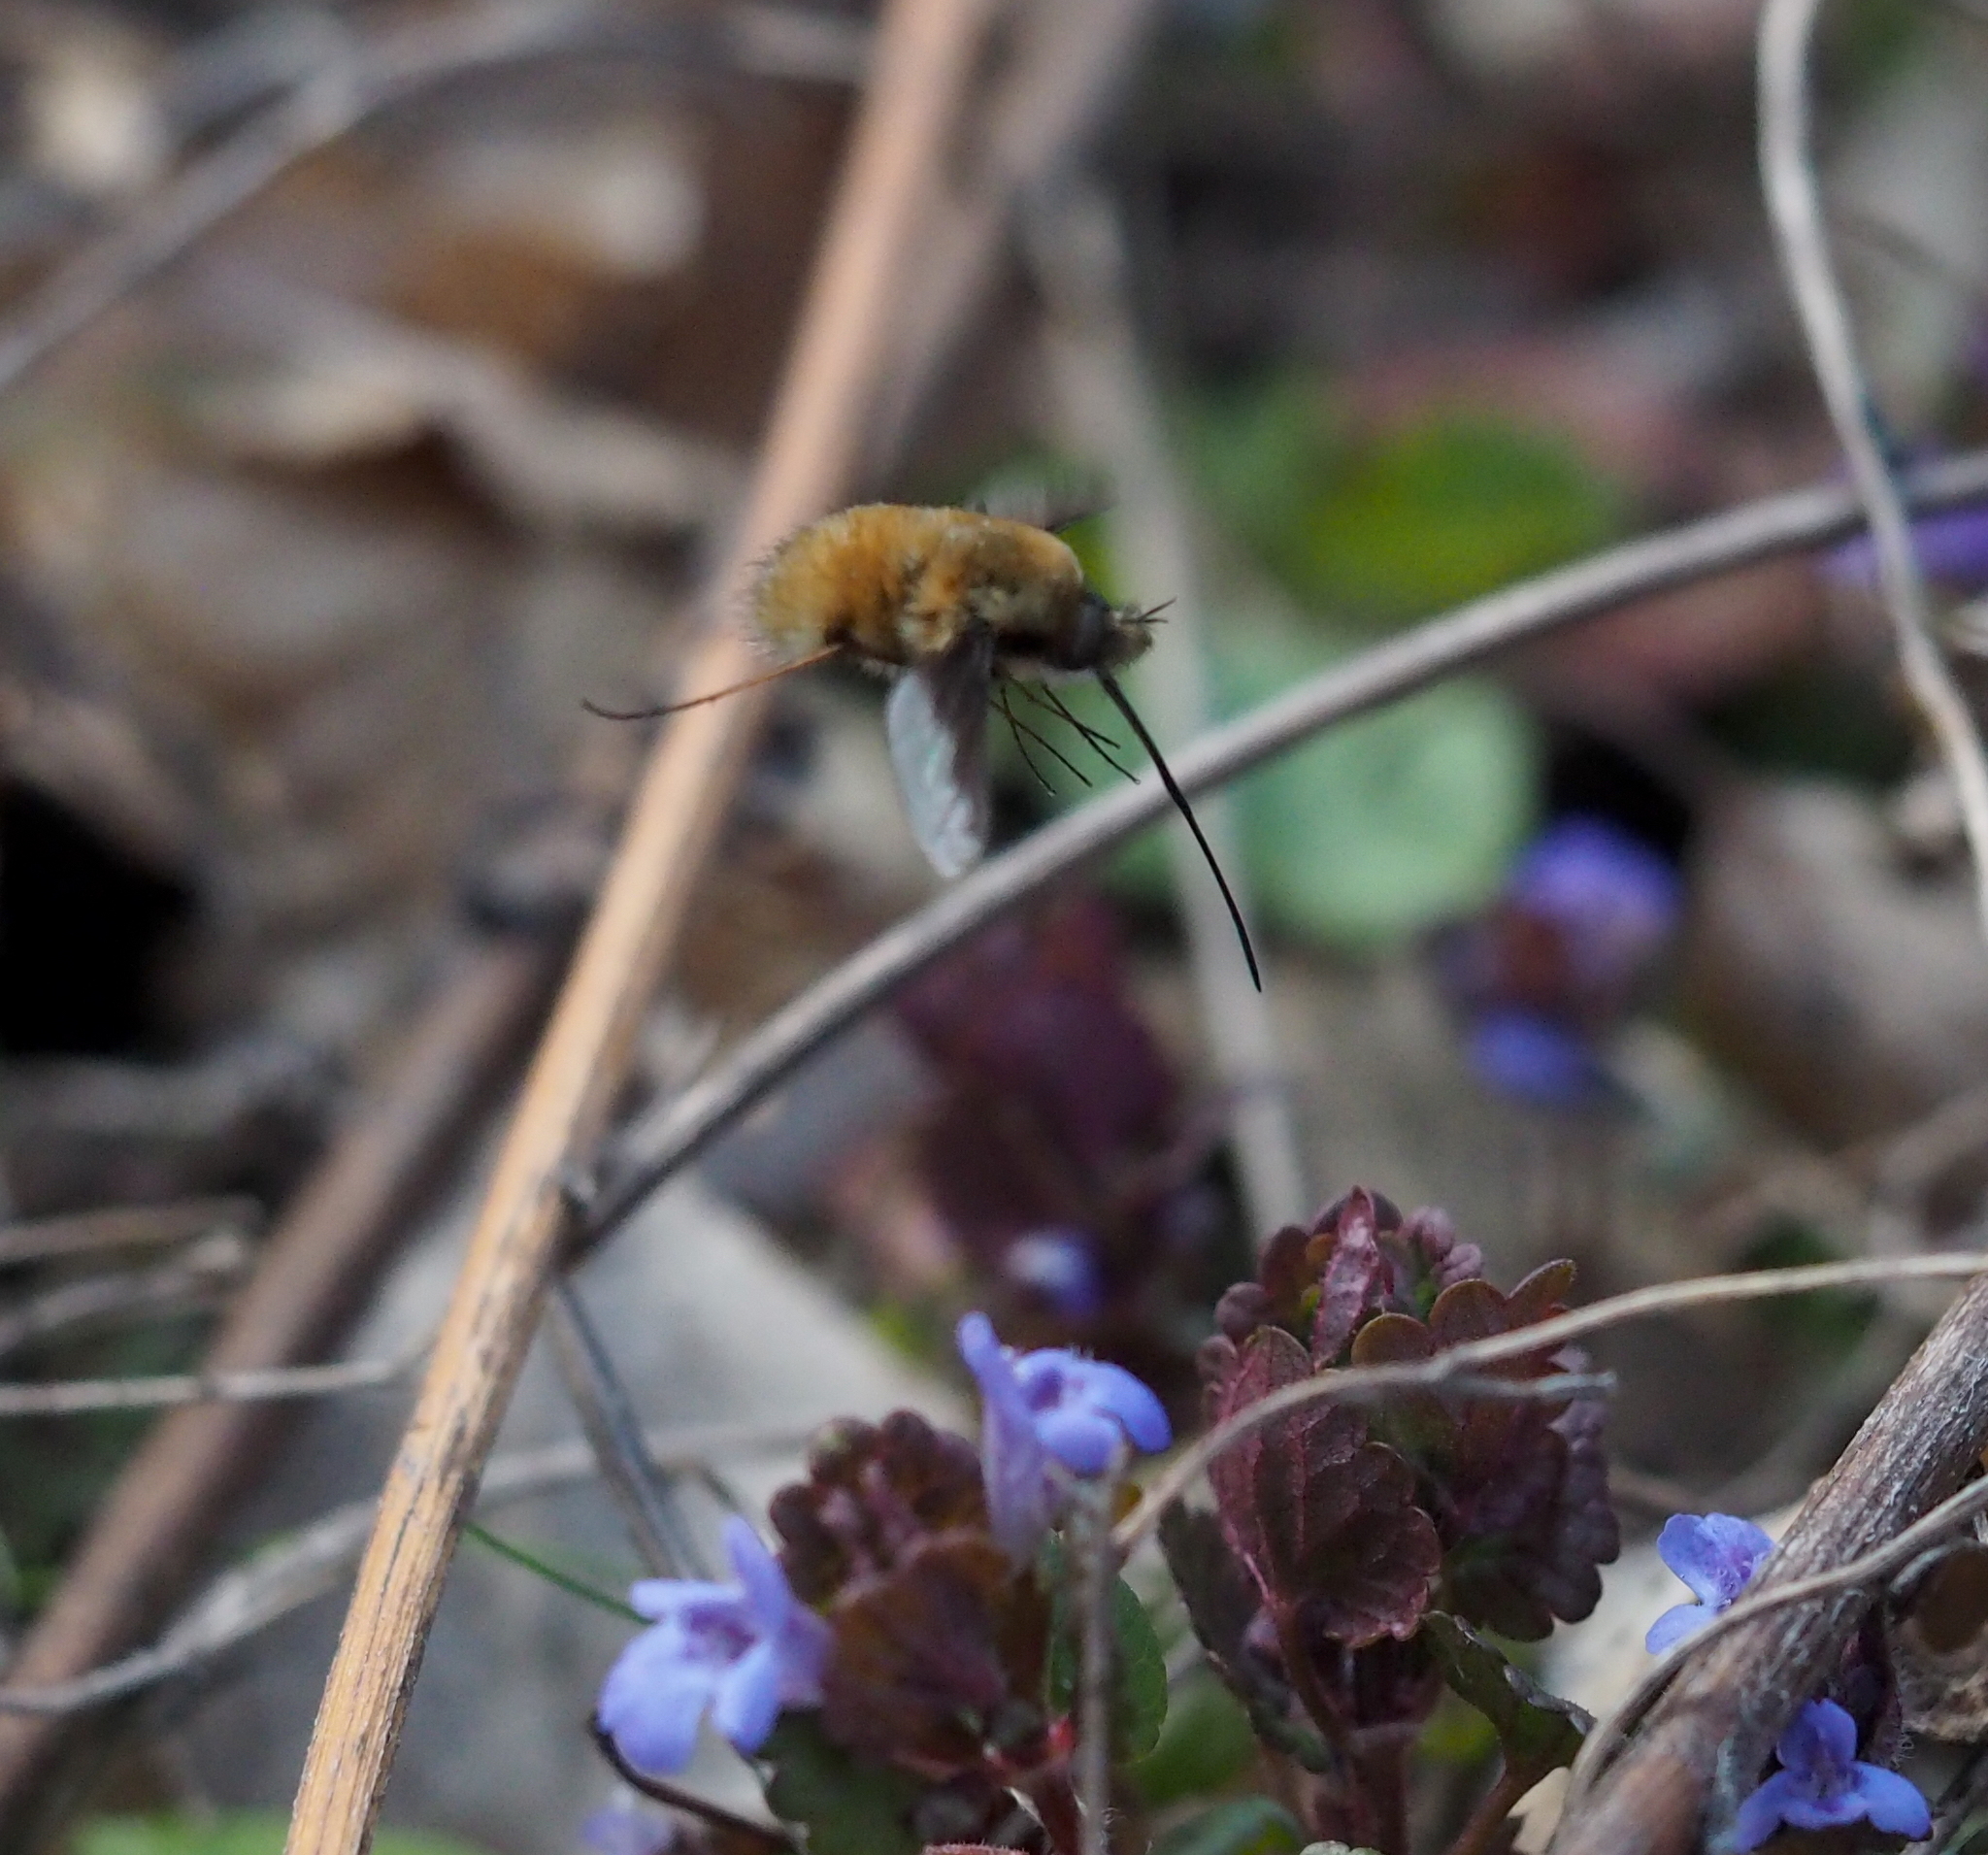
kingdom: Animalia
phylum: Arthropoda
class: Insecta
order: Diptera
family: Bombyliidae
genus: Bombylius
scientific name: Bombylius major
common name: Bee fly
